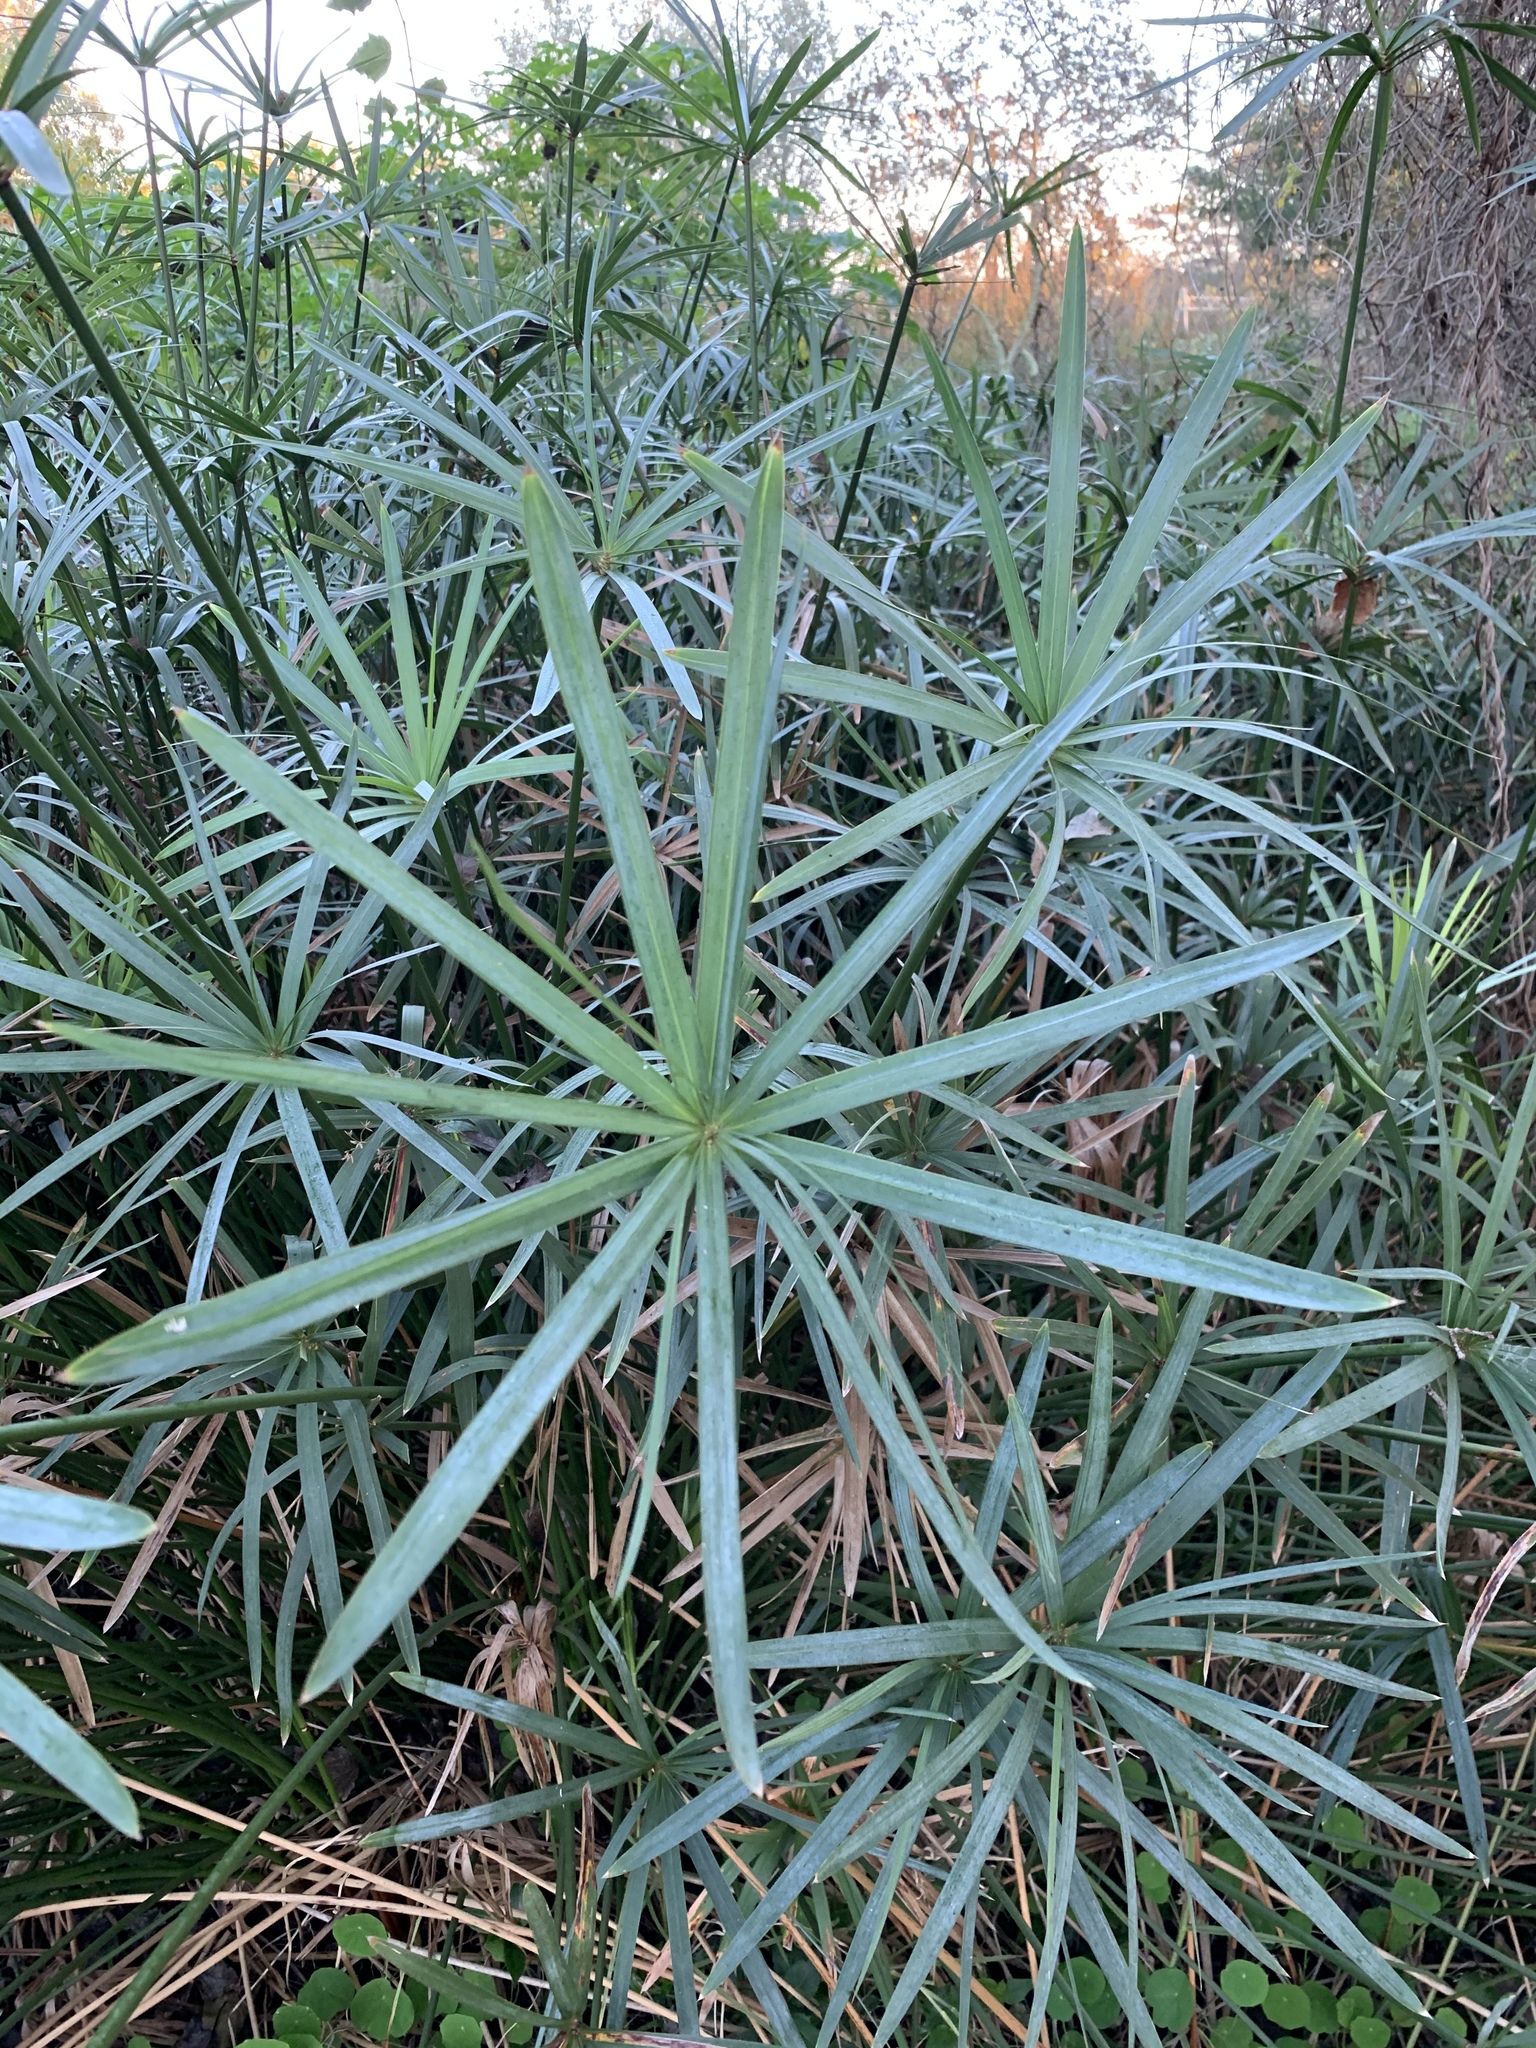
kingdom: Plantae
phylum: Tracheophyta
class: Liliopsida
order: Poales
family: Cyperaceae
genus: Cyperus
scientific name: Cyperus textilis
